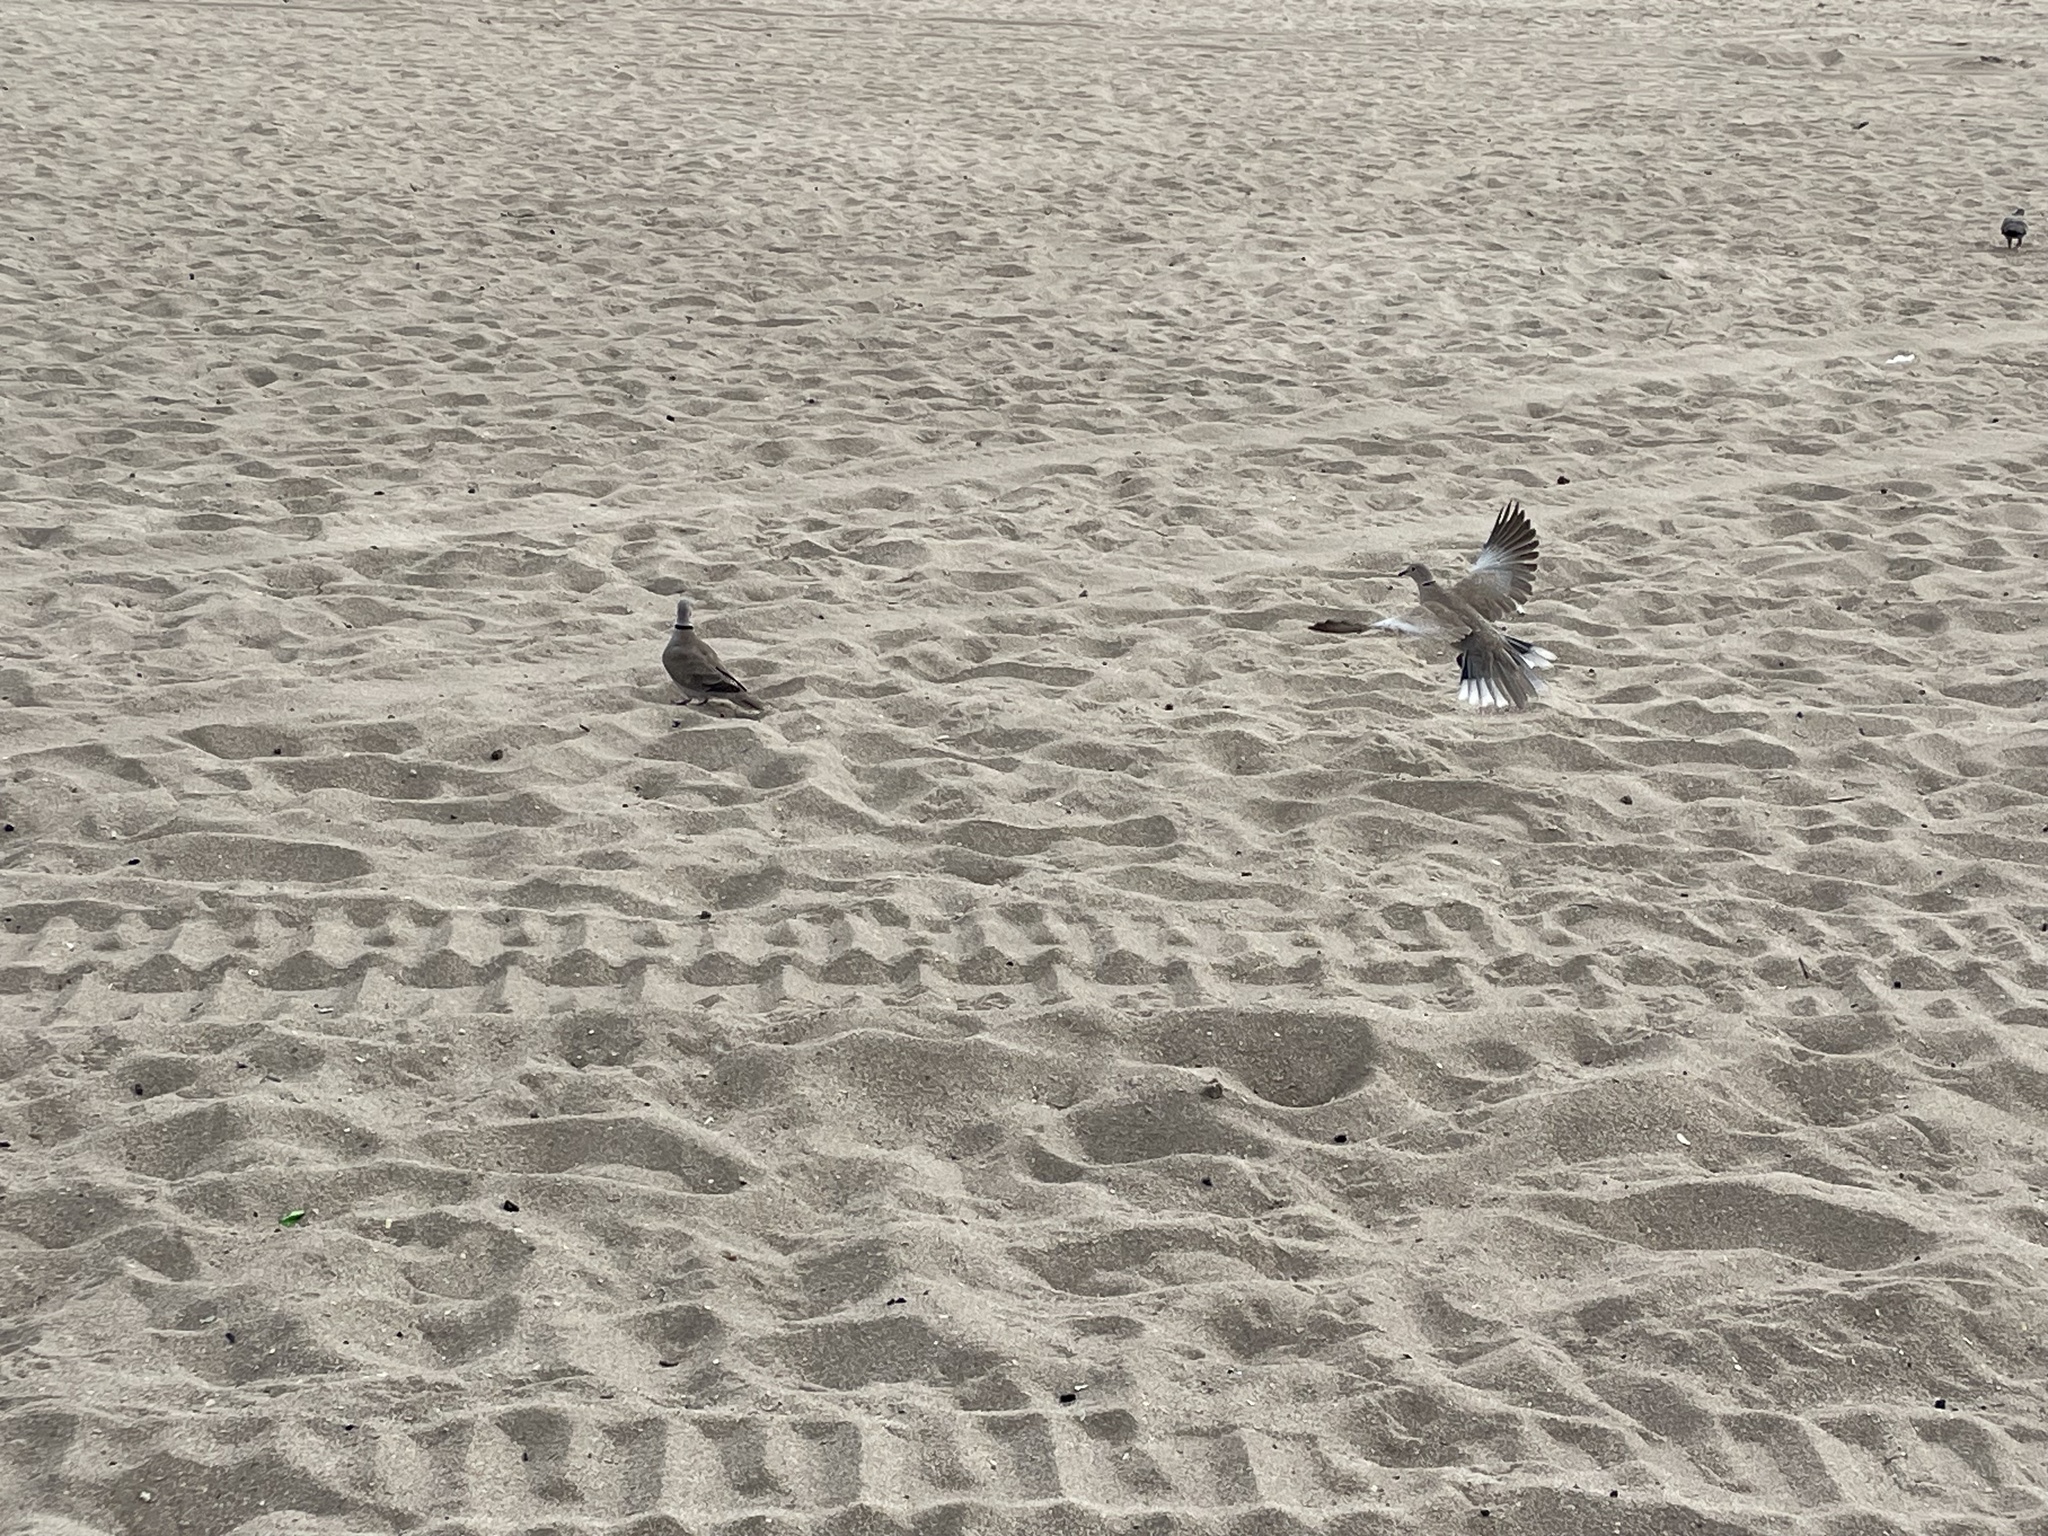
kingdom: Animalia
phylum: Chordata
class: Aves
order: Columbiformes
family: Columbidae
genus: Streptopelia
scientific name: Streptopelia decaocto
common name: Eurasian collared dove
